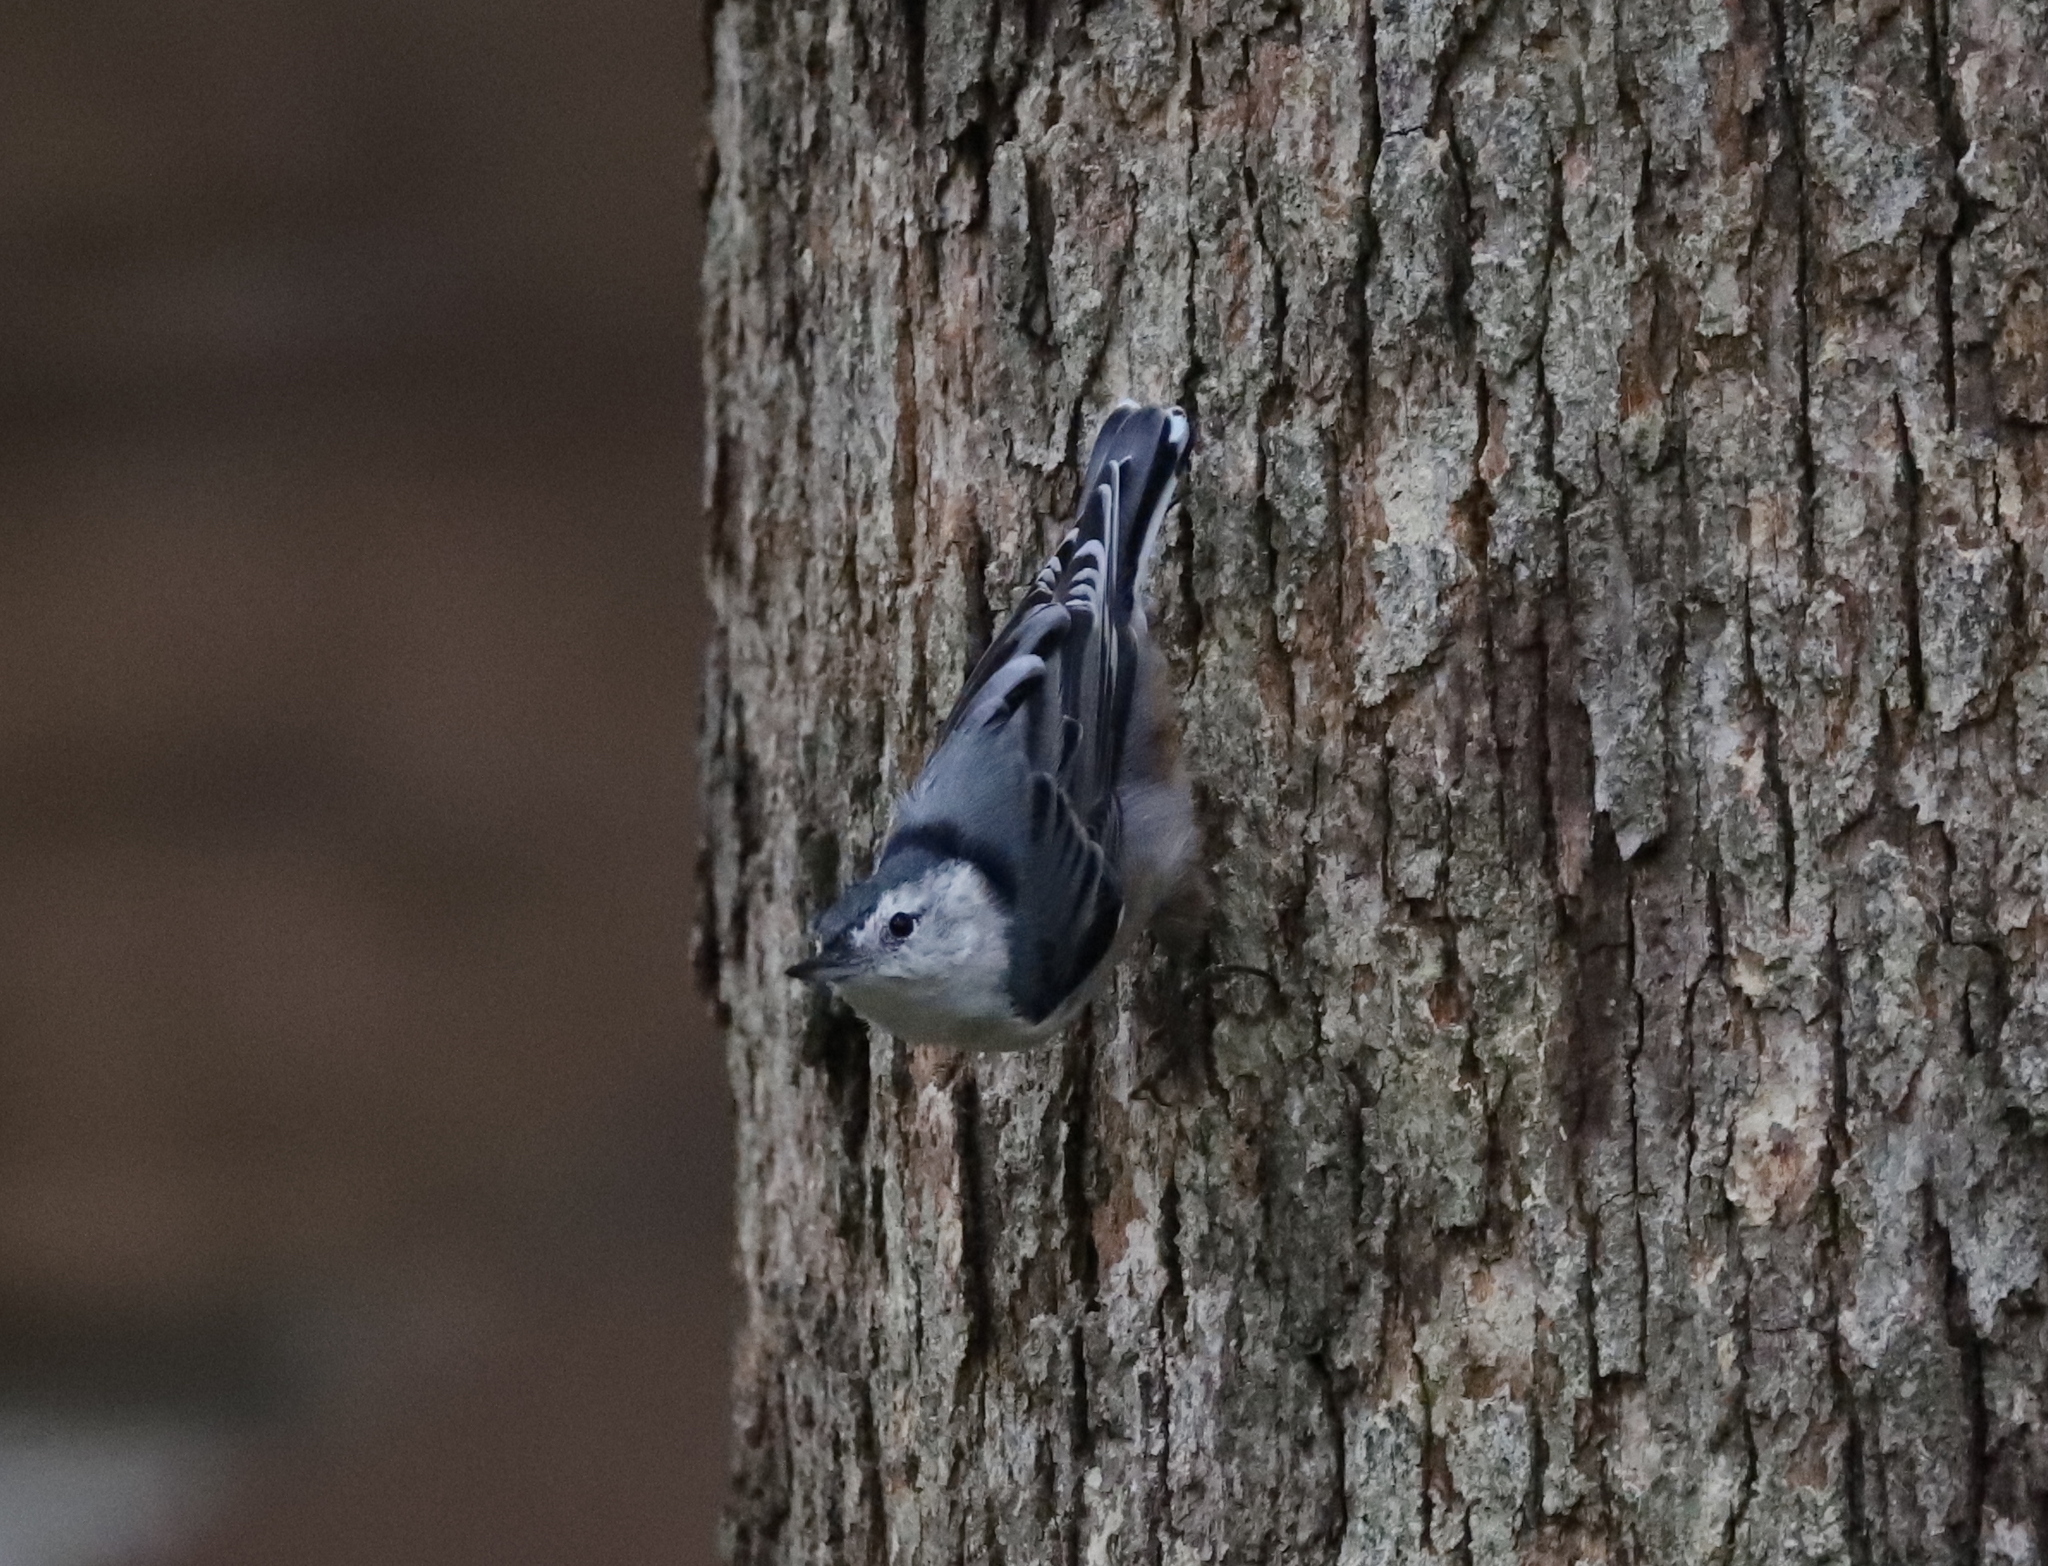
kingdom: Animalia
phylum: Chordata
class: Aves
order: Passeriformes
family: Sittidae
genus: Sitta
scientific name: Sitta carolinensis
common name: White-breasted nuthatch
